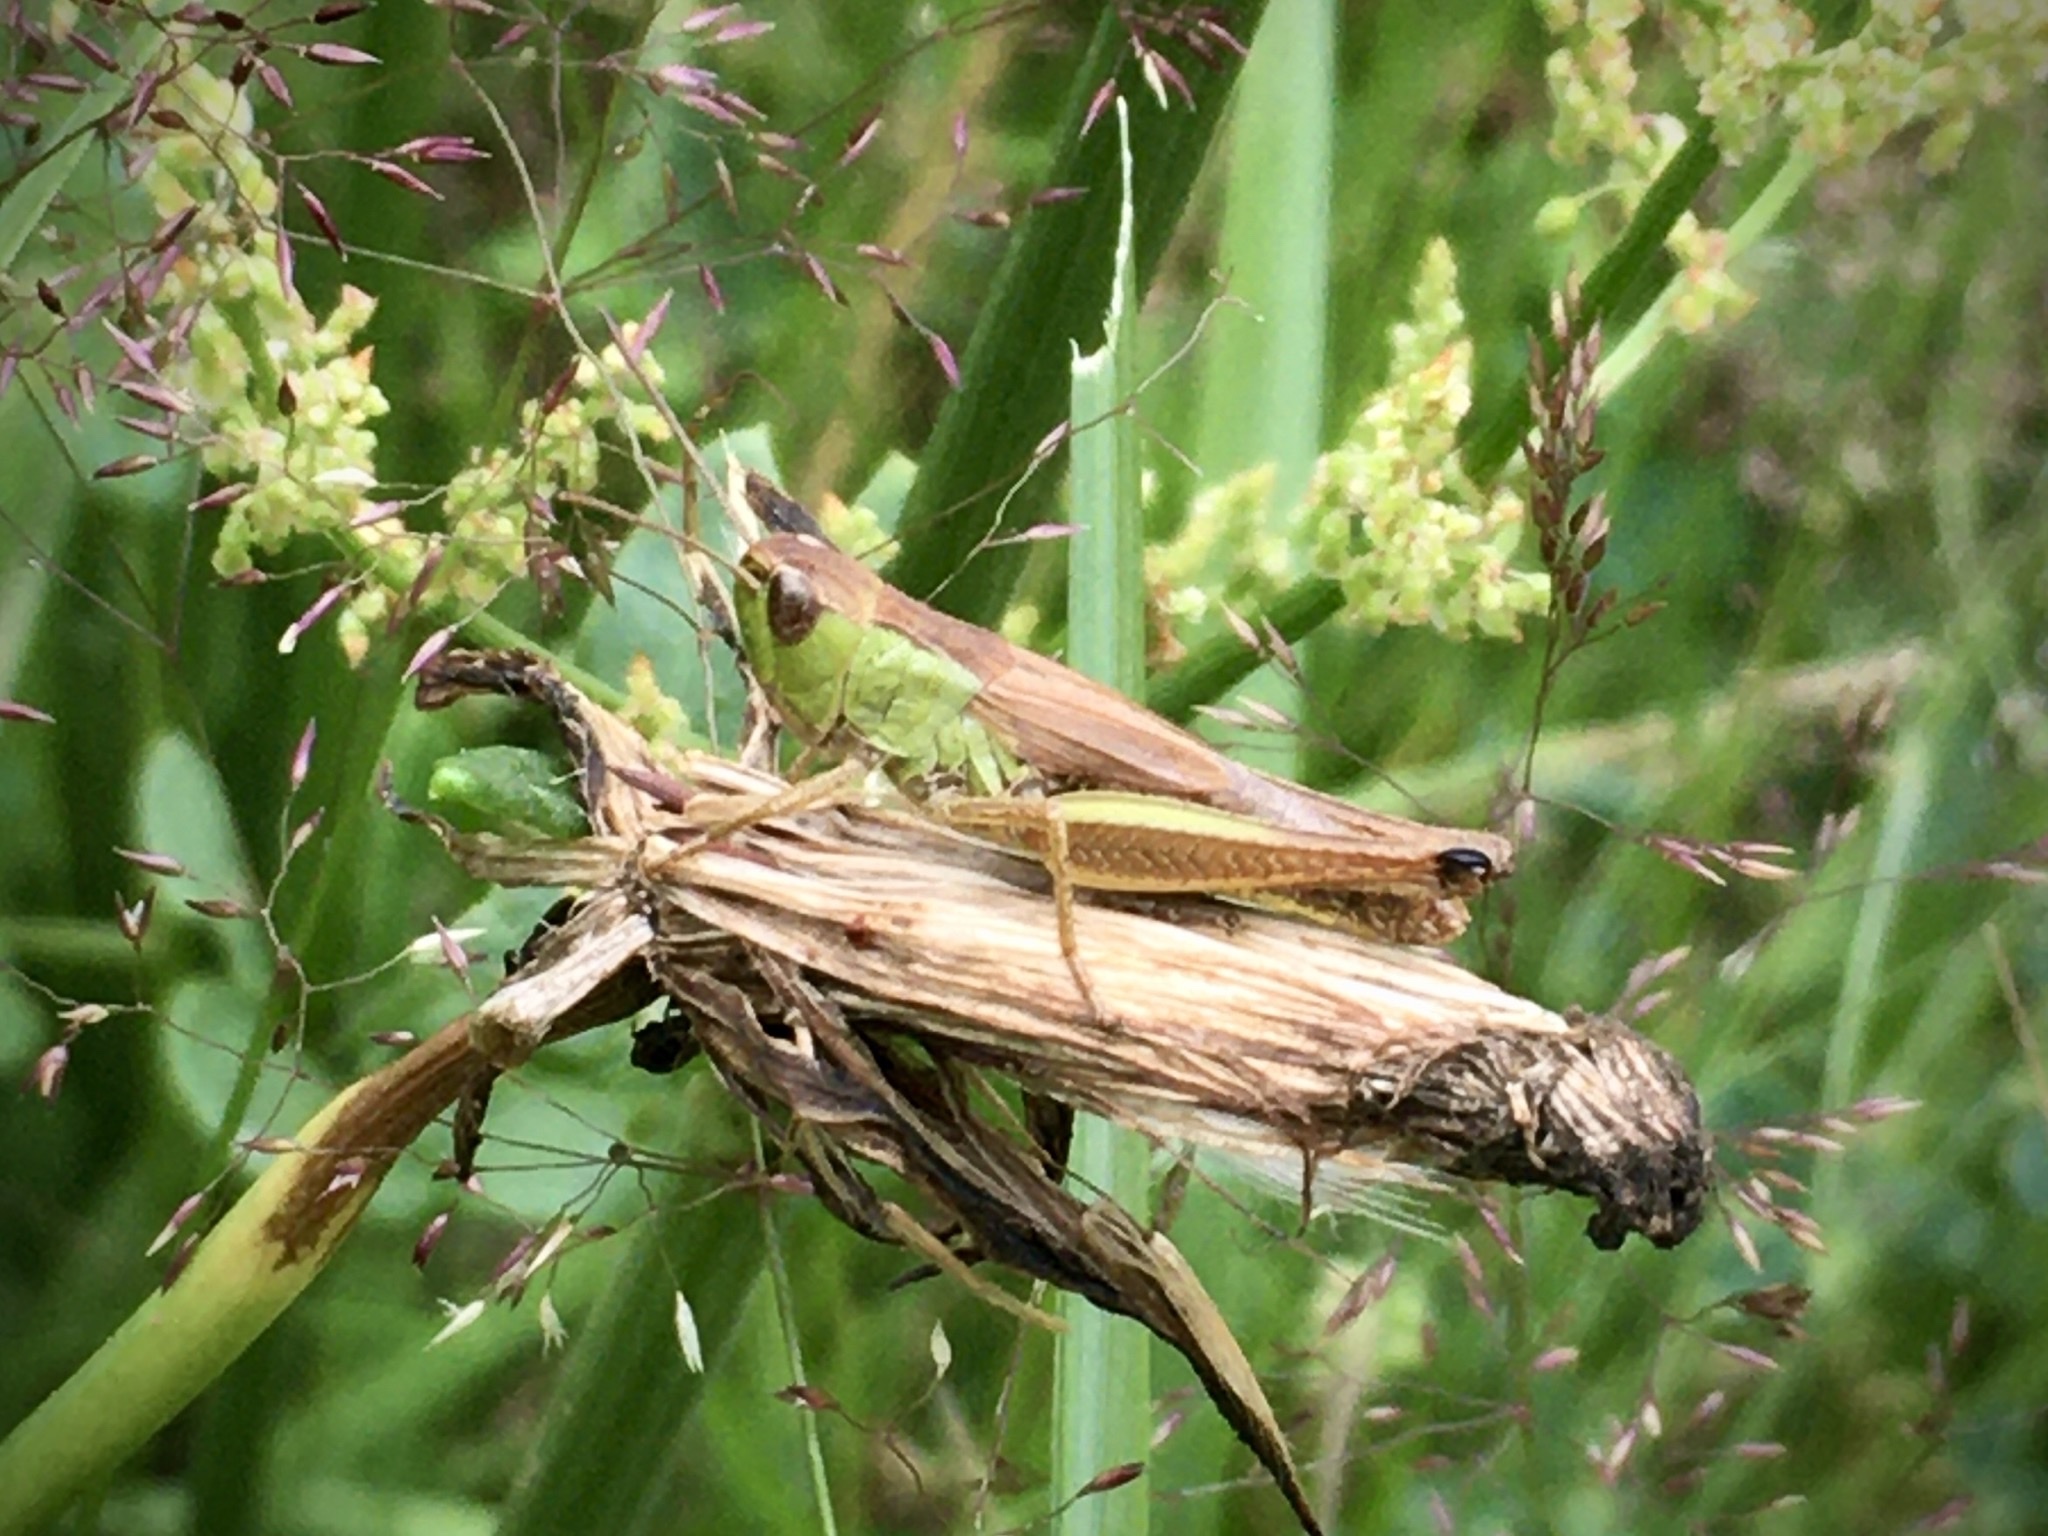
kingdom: Animalia
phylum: Arthropoda
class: Insecta
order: Orthoptera
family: Acrididae
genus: Pseudochorthippus
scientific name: Pseudochorthippus parallelus
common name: Meadow grasshopper
